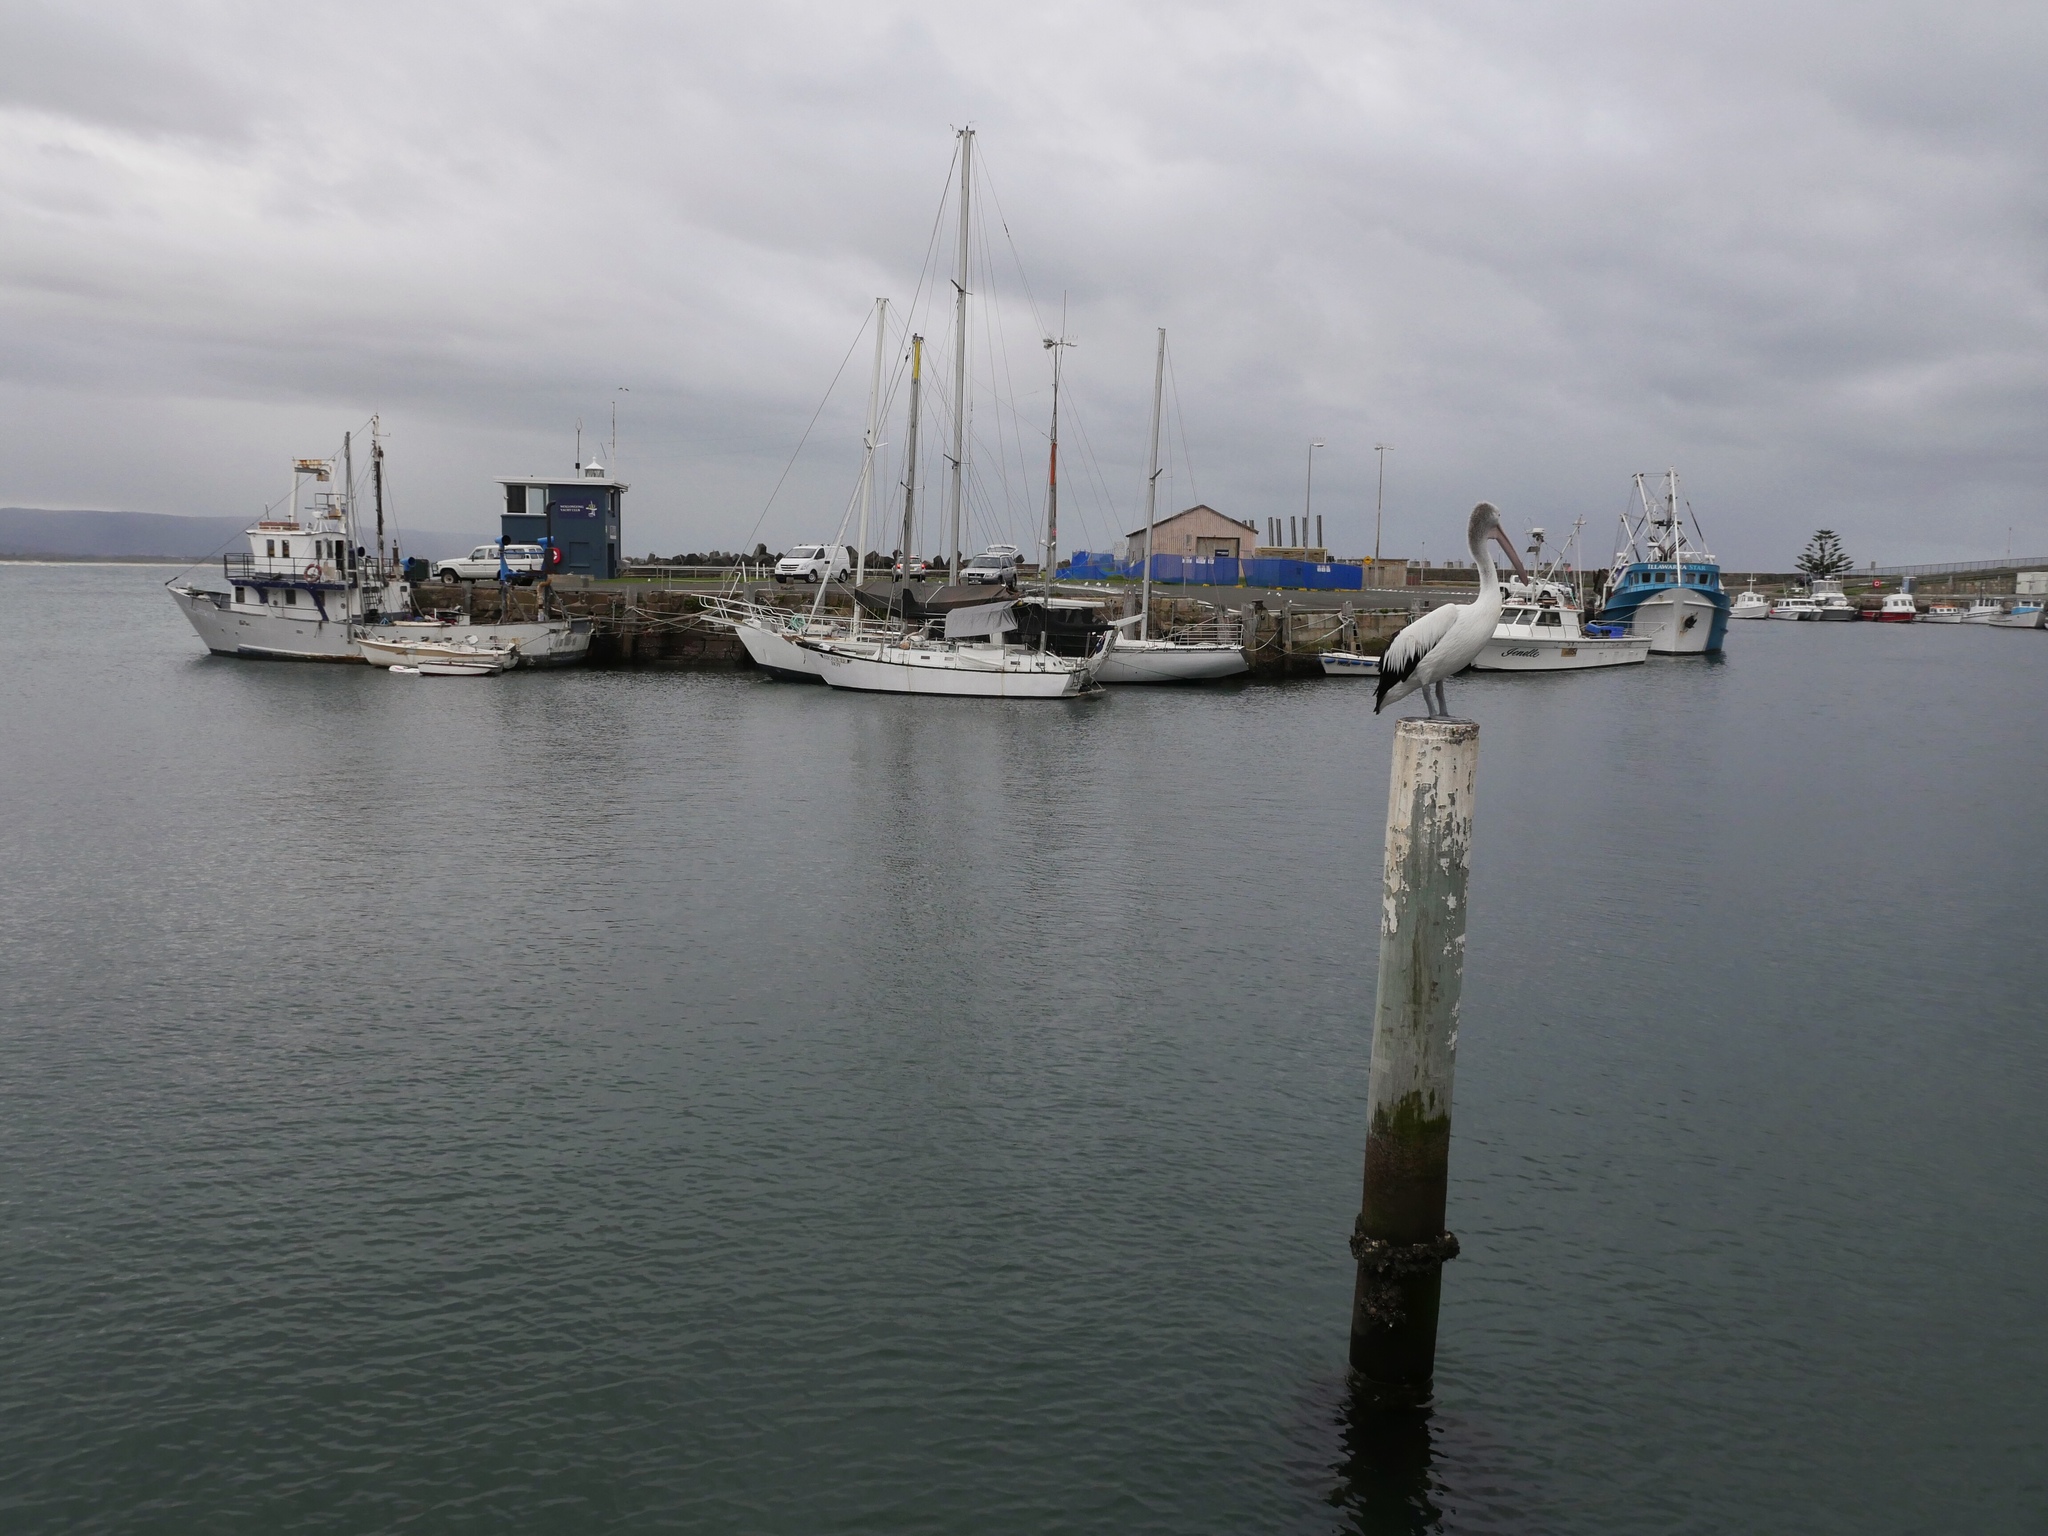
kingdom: Animalia
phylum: Chordata
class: Aves
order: Pelecaniformes
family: Pelecanidae
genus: Pelecanus
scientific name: Pelecanus conspicillatus
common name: Australian pelican
